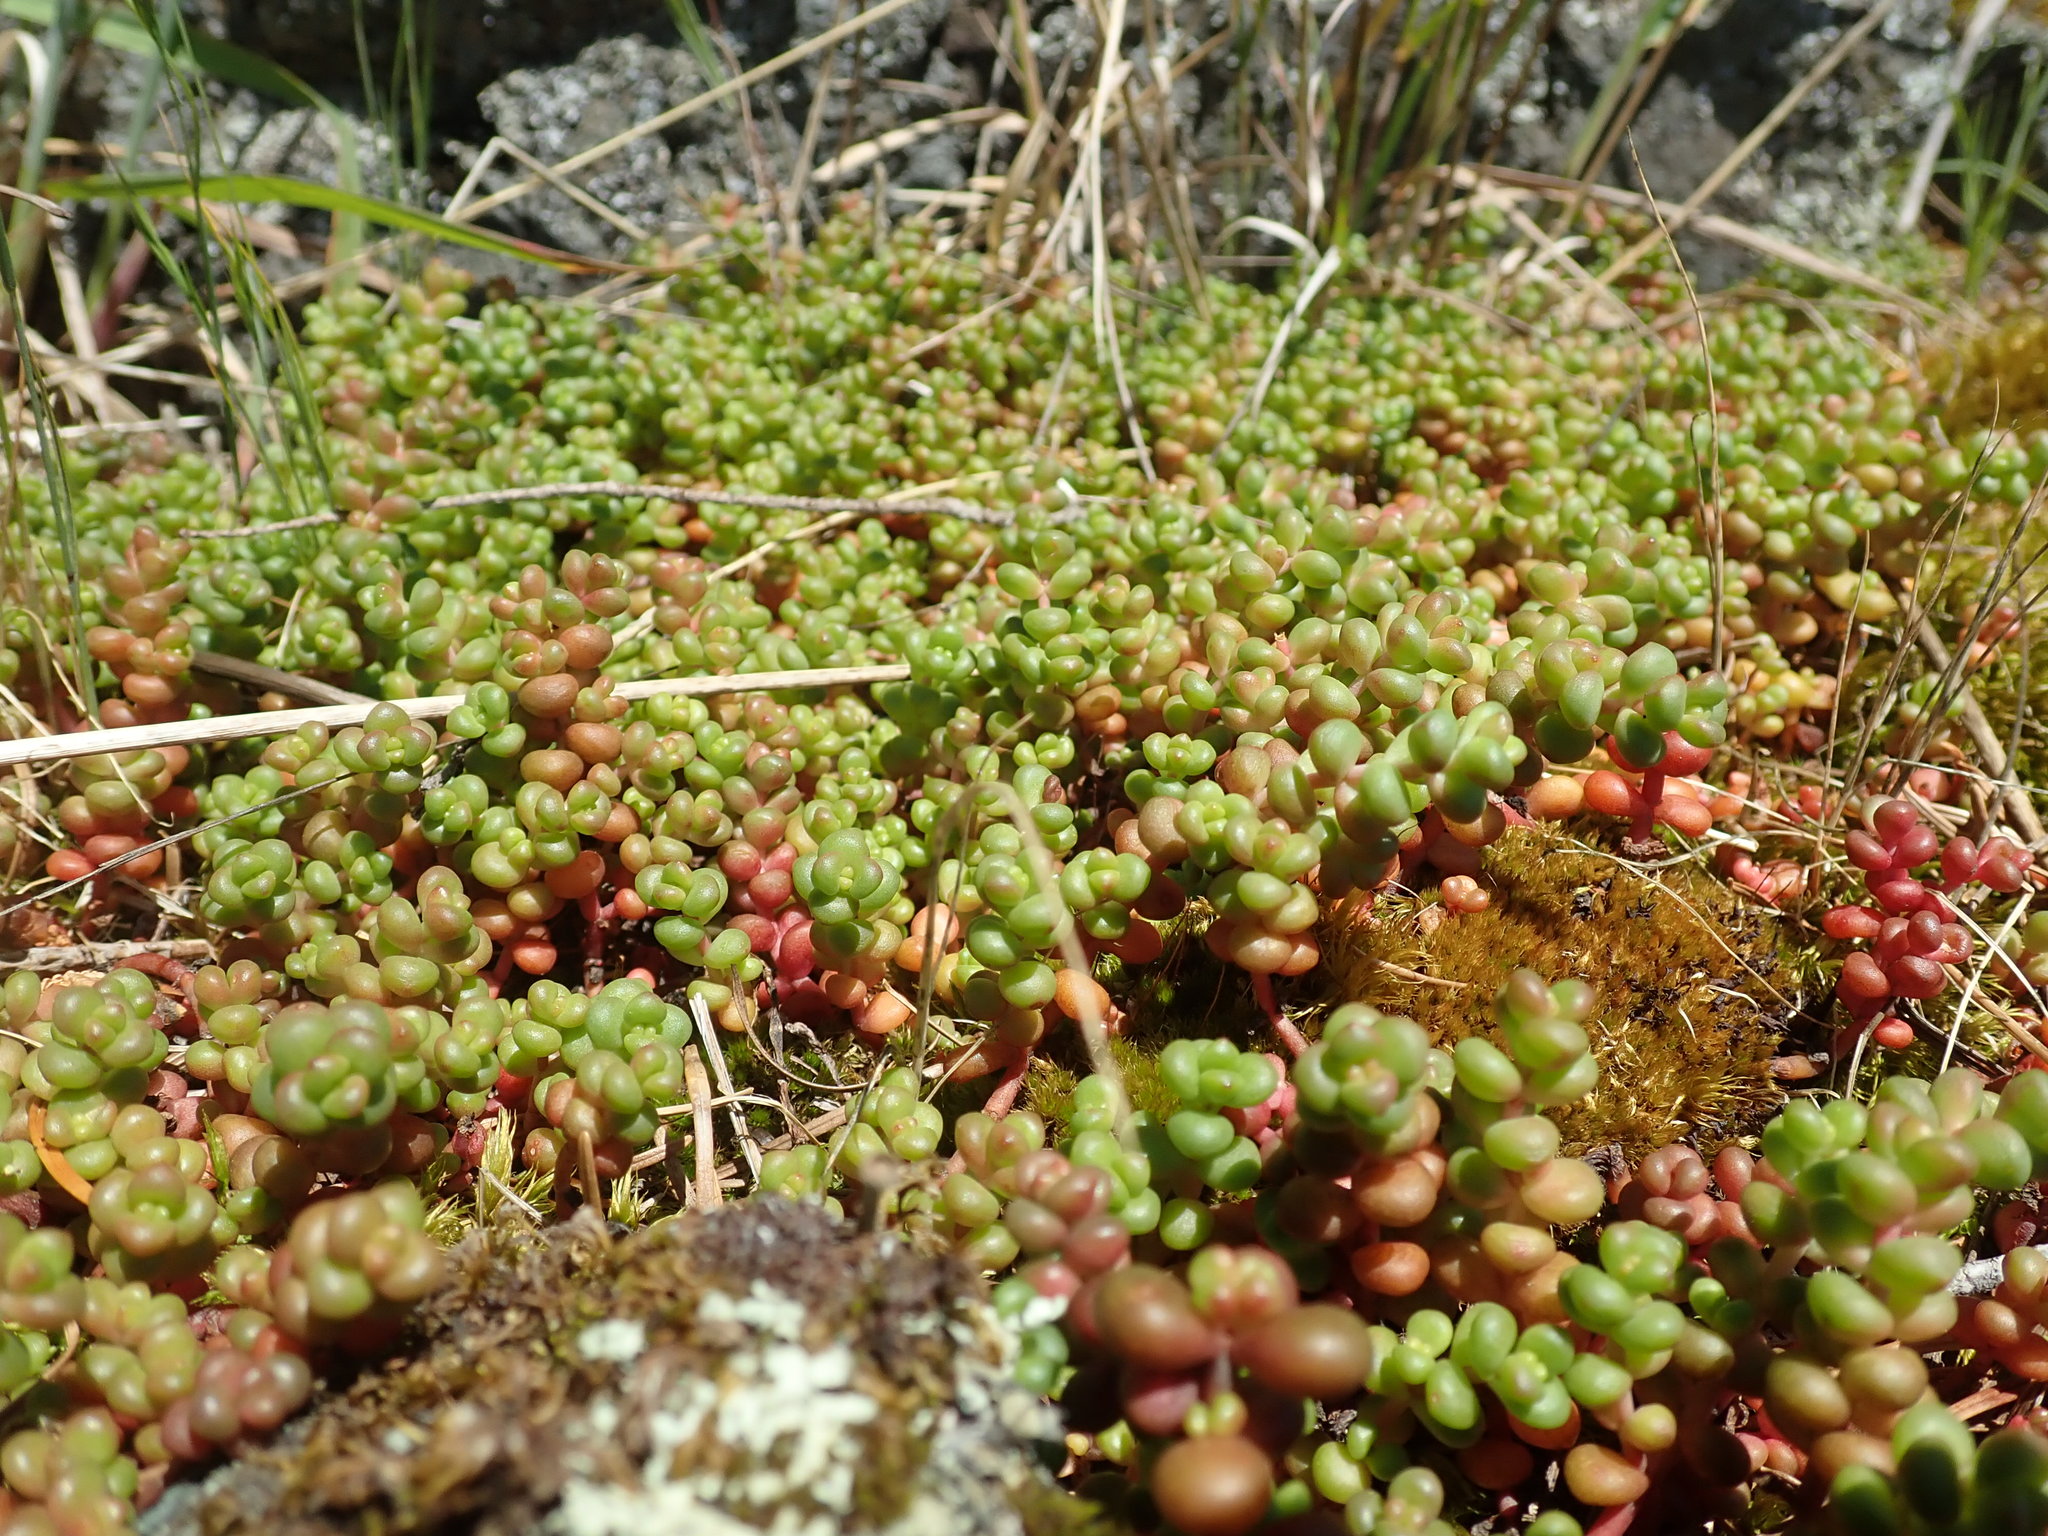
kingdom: Plantae
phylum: Tracheophyta
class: Magnoliopsida
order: Saxifragales
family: Crassulaceae
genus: Sedum
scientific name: Sedum divergens
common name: Cascade stonecrop
